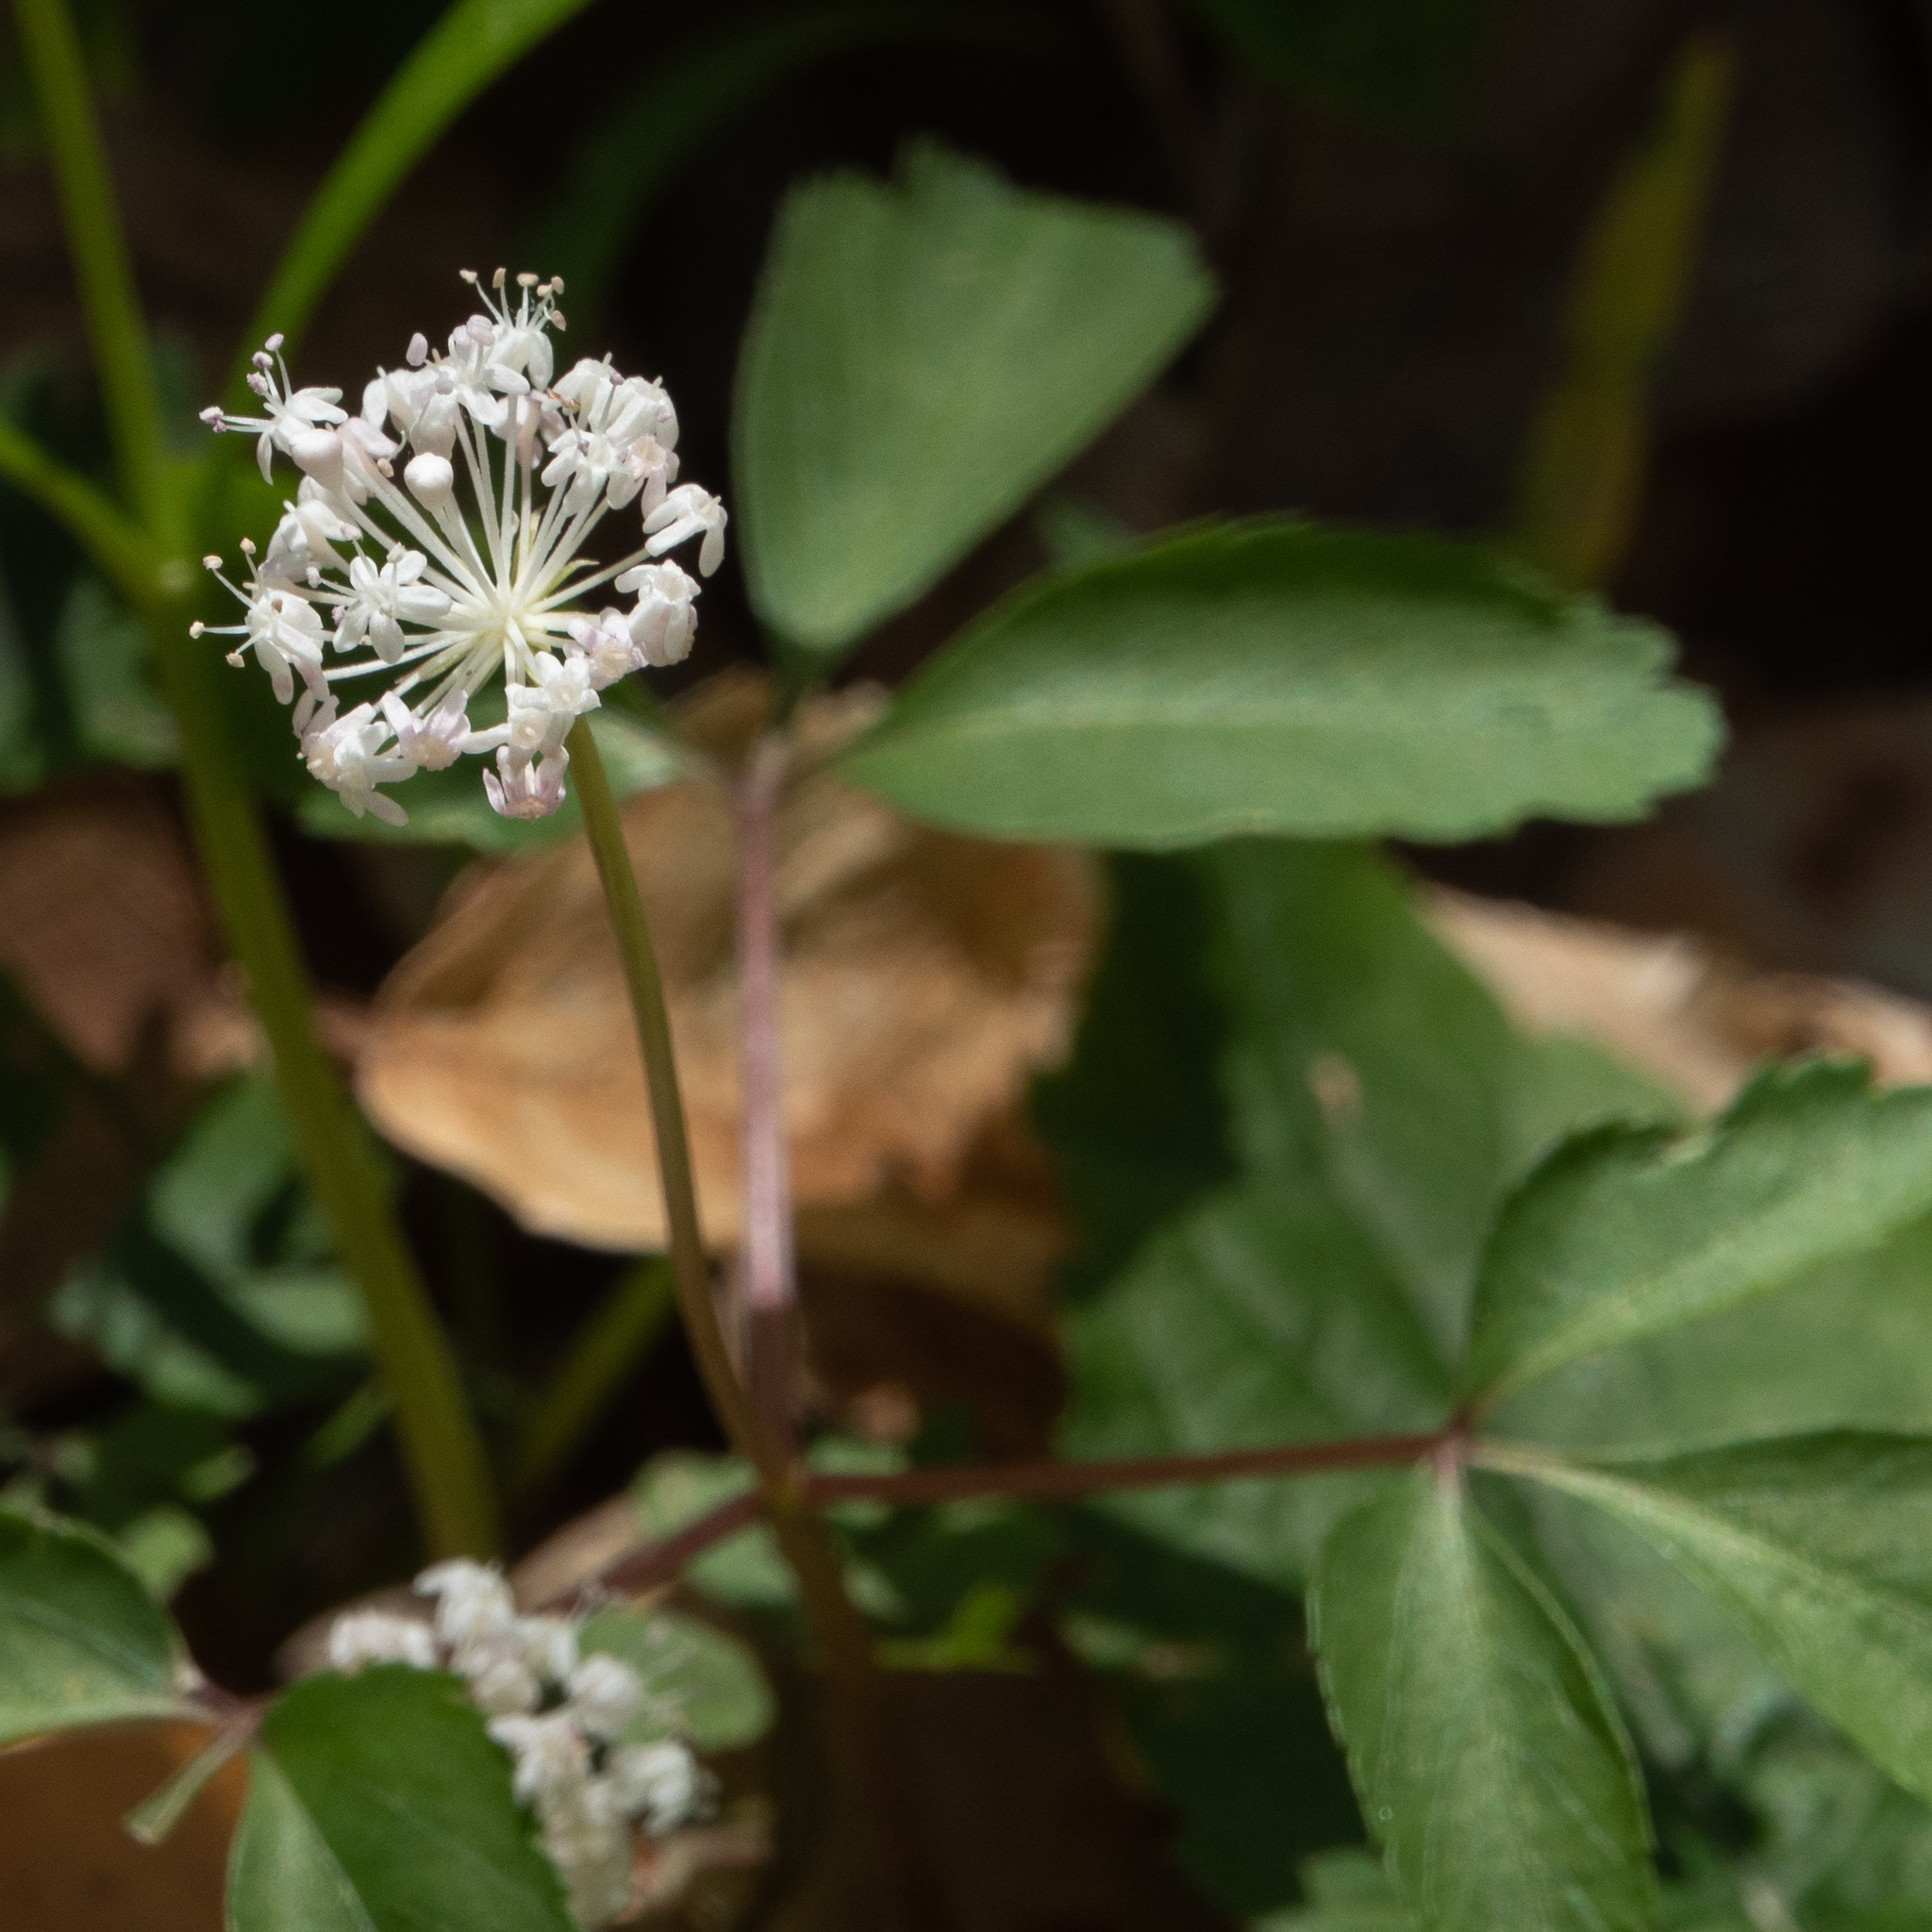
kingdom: Plantae
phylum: Tracheophyta
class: Magnoliopsida
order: Apiales
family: Araliaceae
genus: Panax
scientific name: Panax trifolius
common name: Dwarf ginseng
